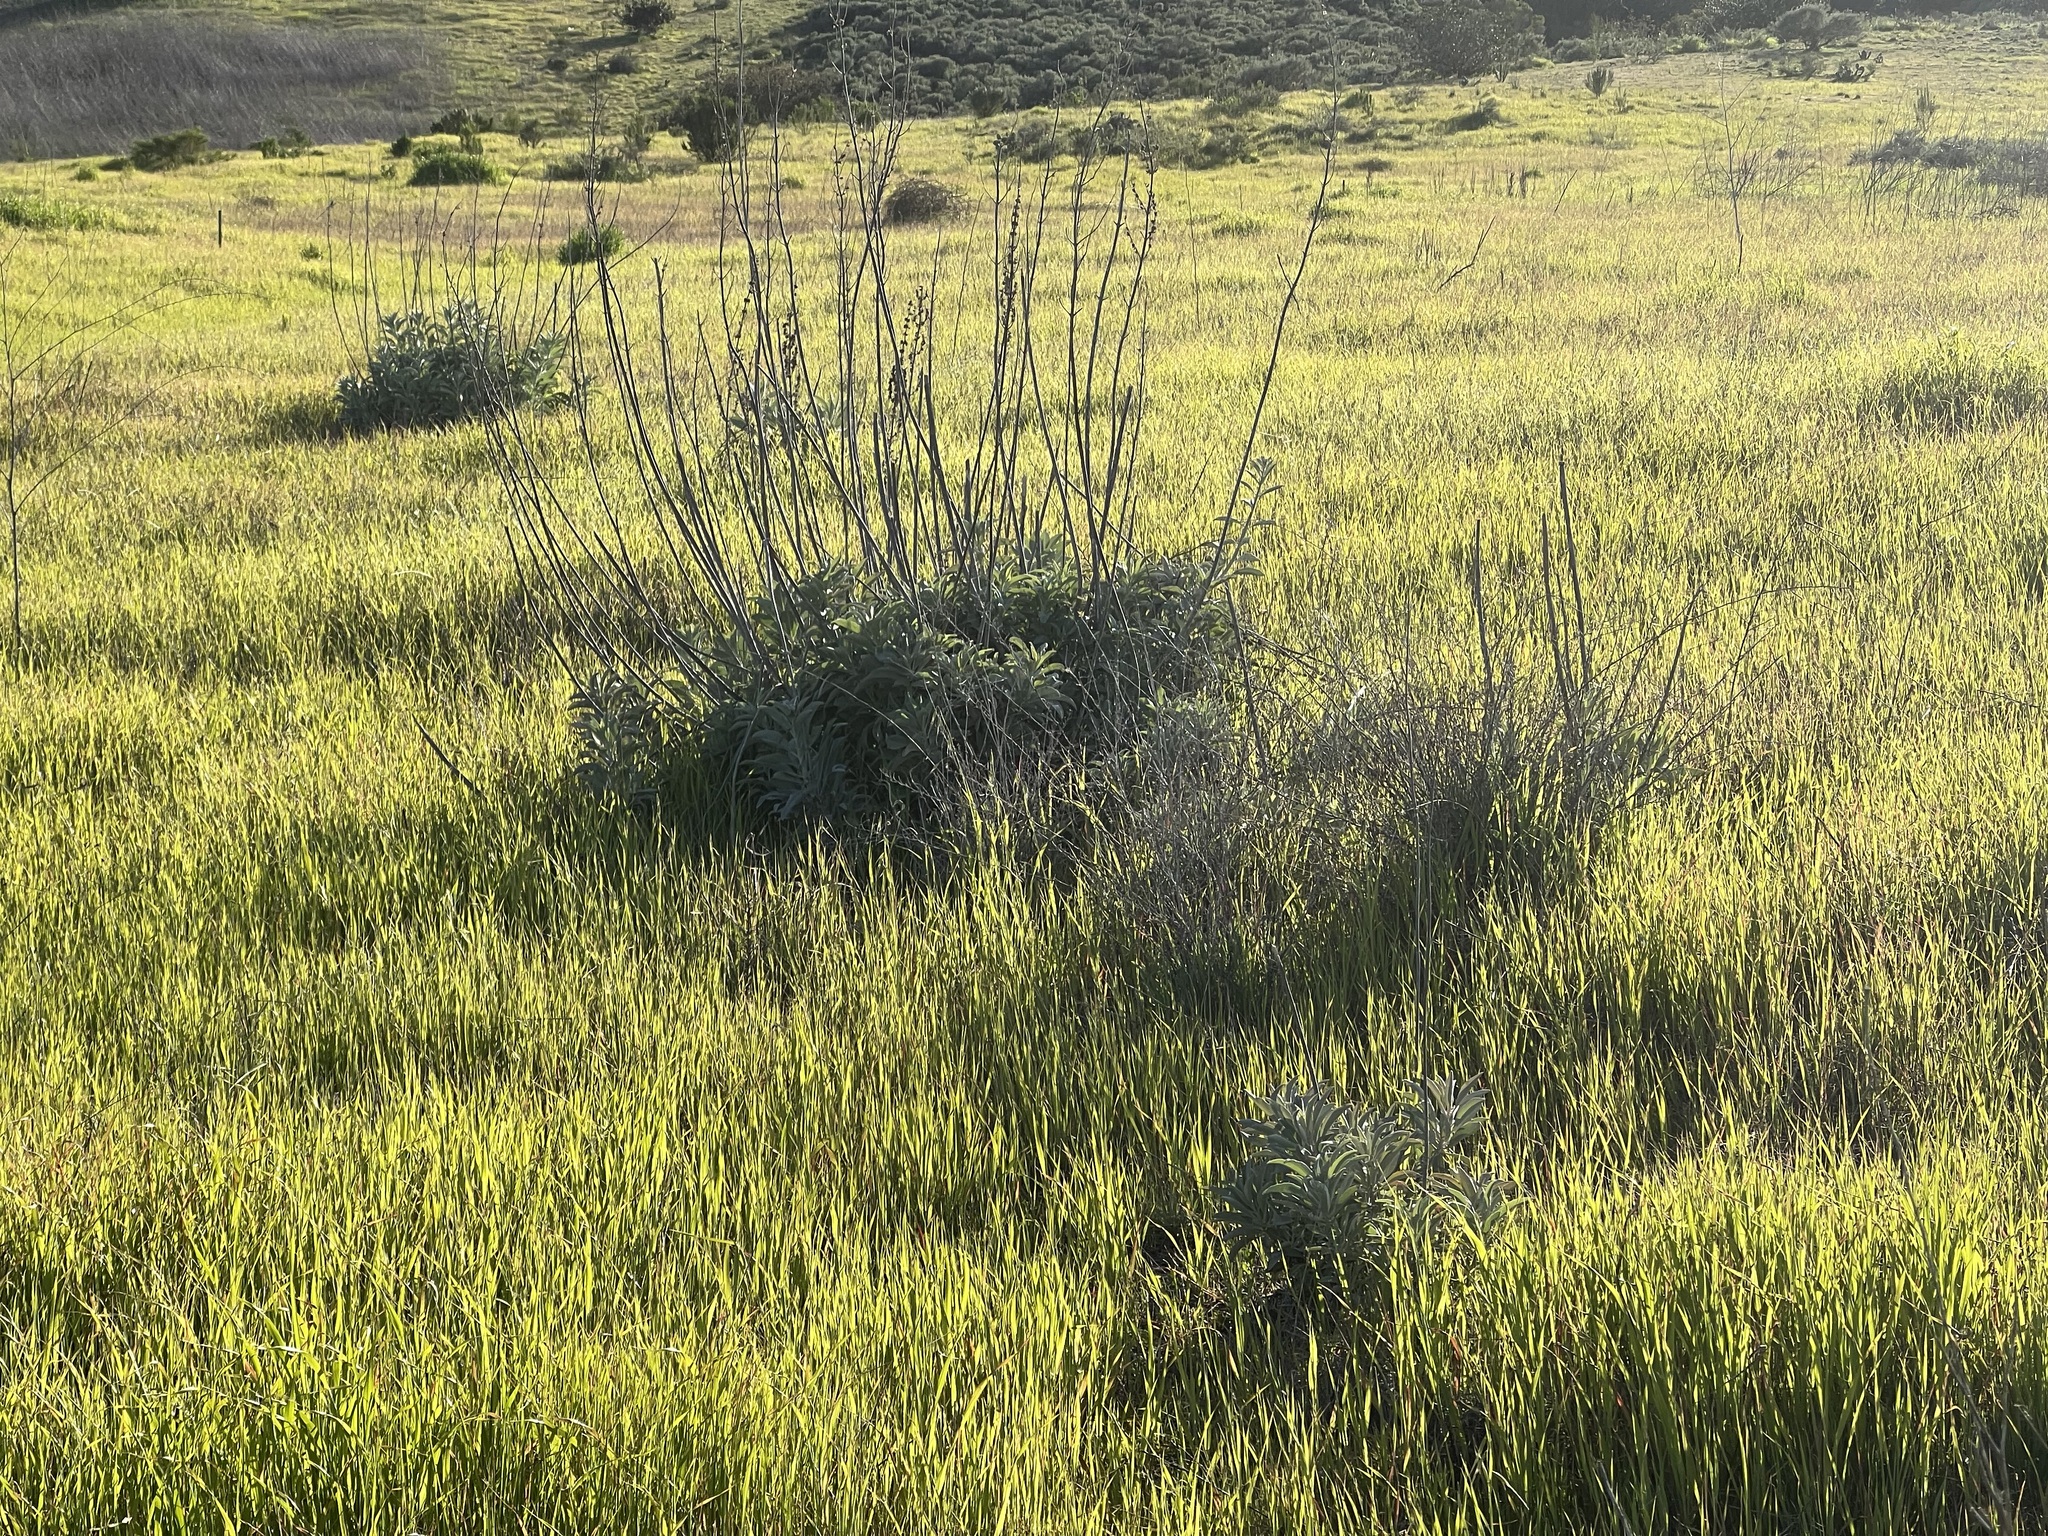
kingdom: Plantae
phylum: Tracheophyta
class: Magnoliopsida
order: Lamiales
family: Lamiaceae
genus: Salvia
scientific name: Salvia apiana
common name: White sage
